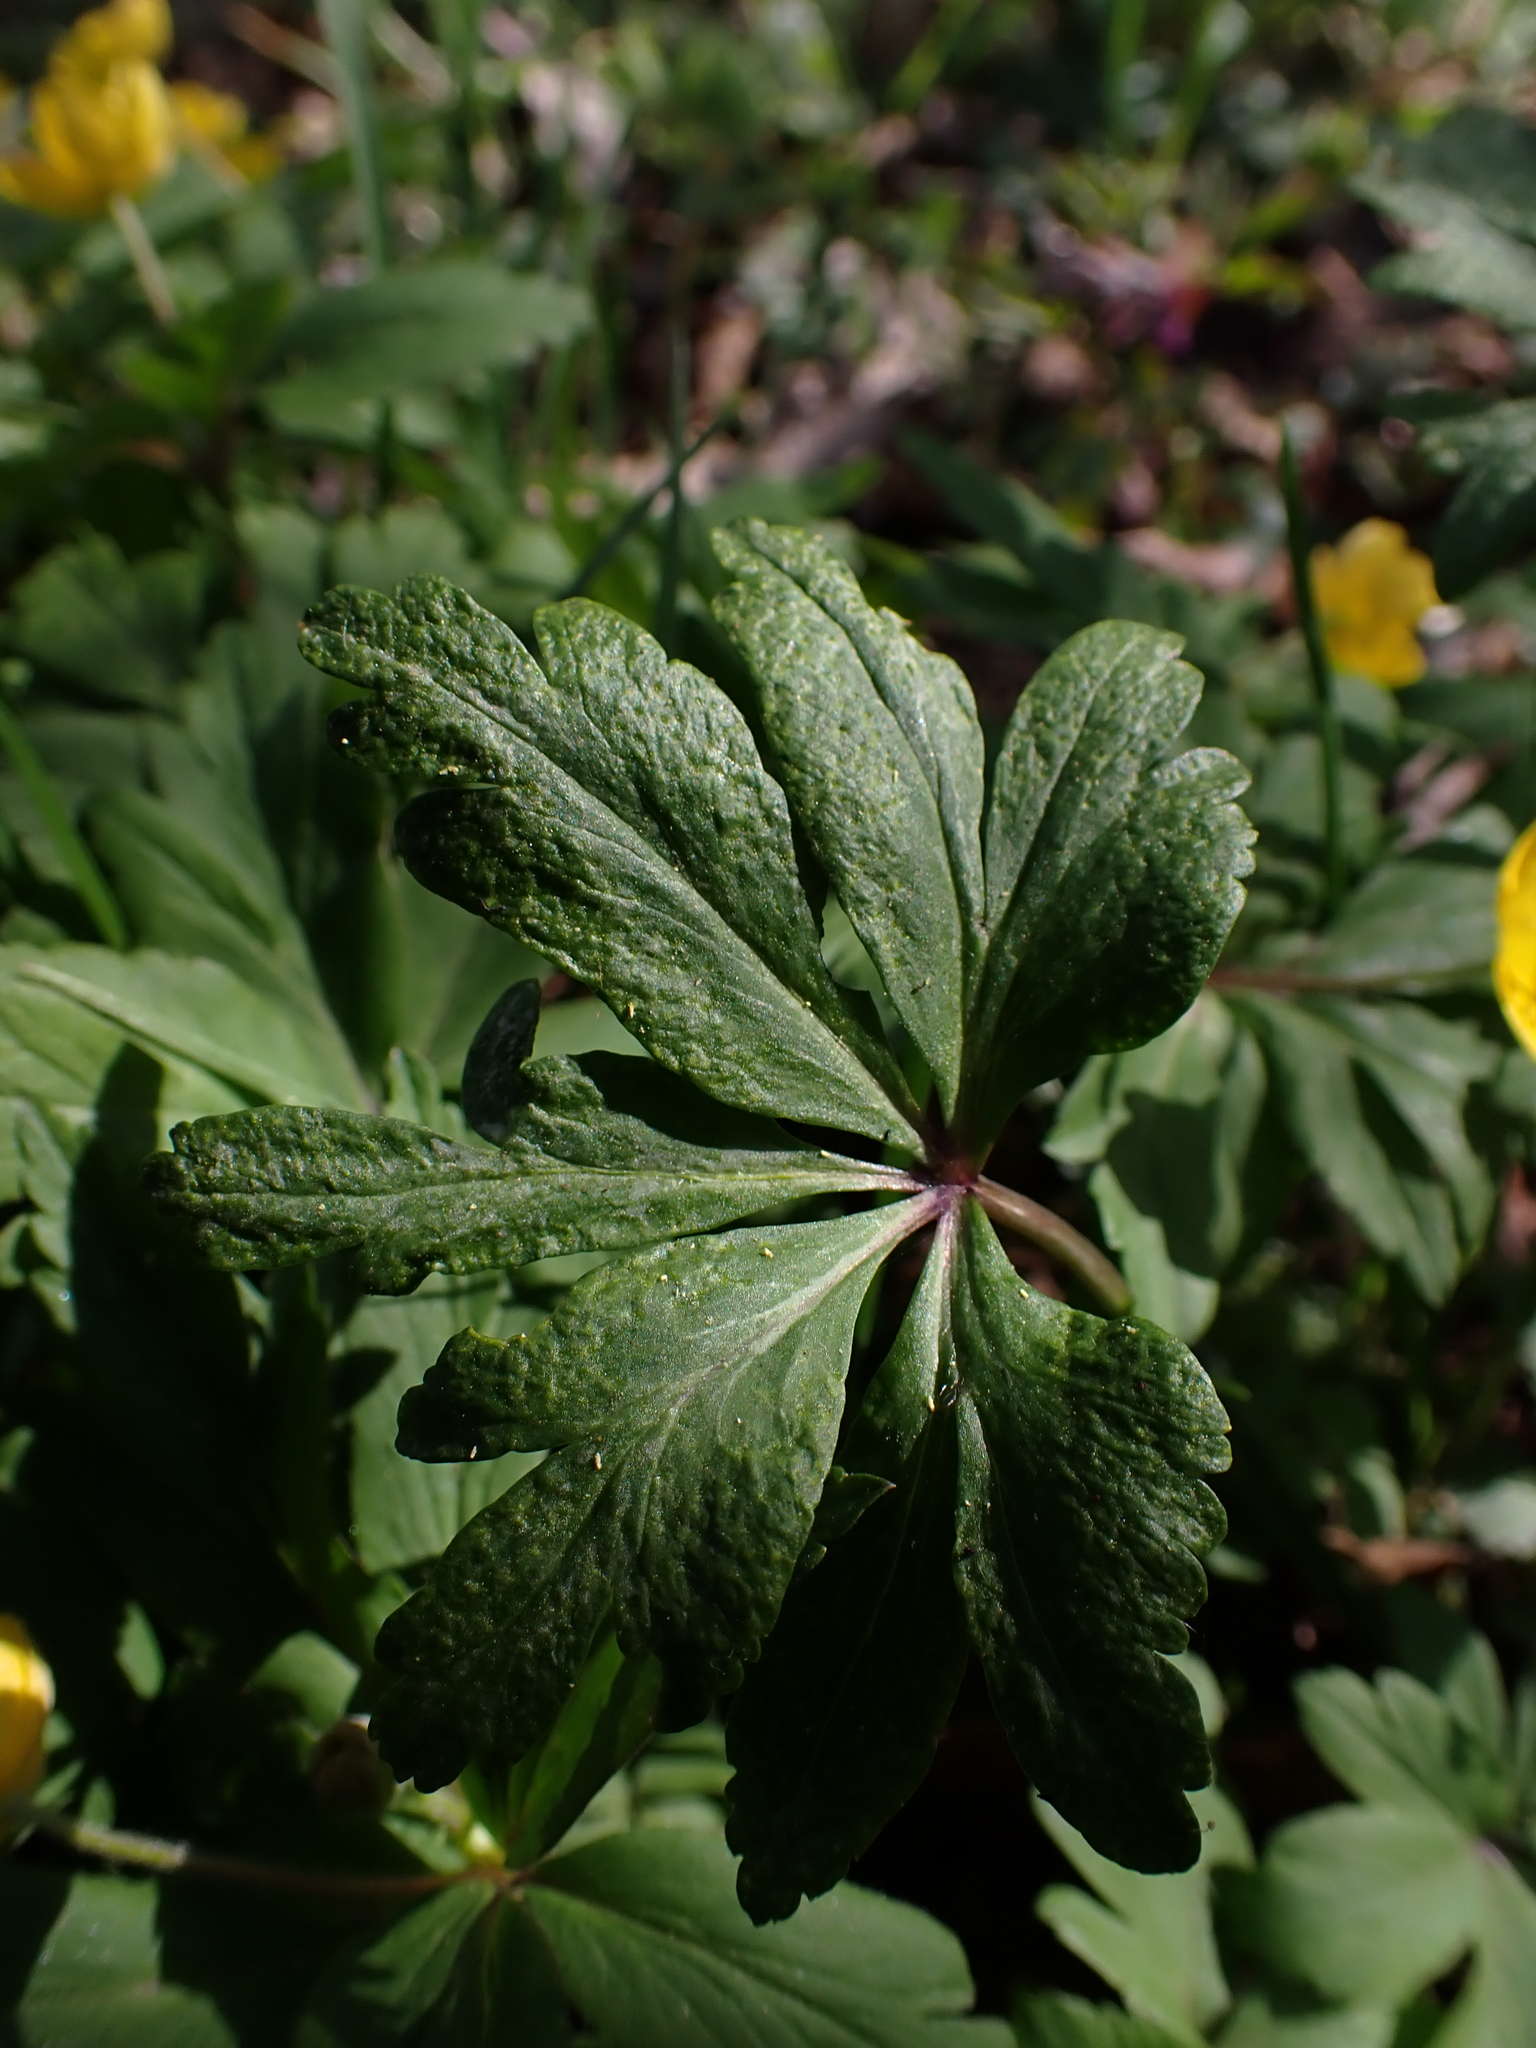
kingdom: Plantae
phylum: Tracheophyta
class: Magnoliopsida
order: Ranunculales
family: Ranunculaceae
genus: Anemone
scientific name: Anemone ranunculoides
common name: Yellow anemone
